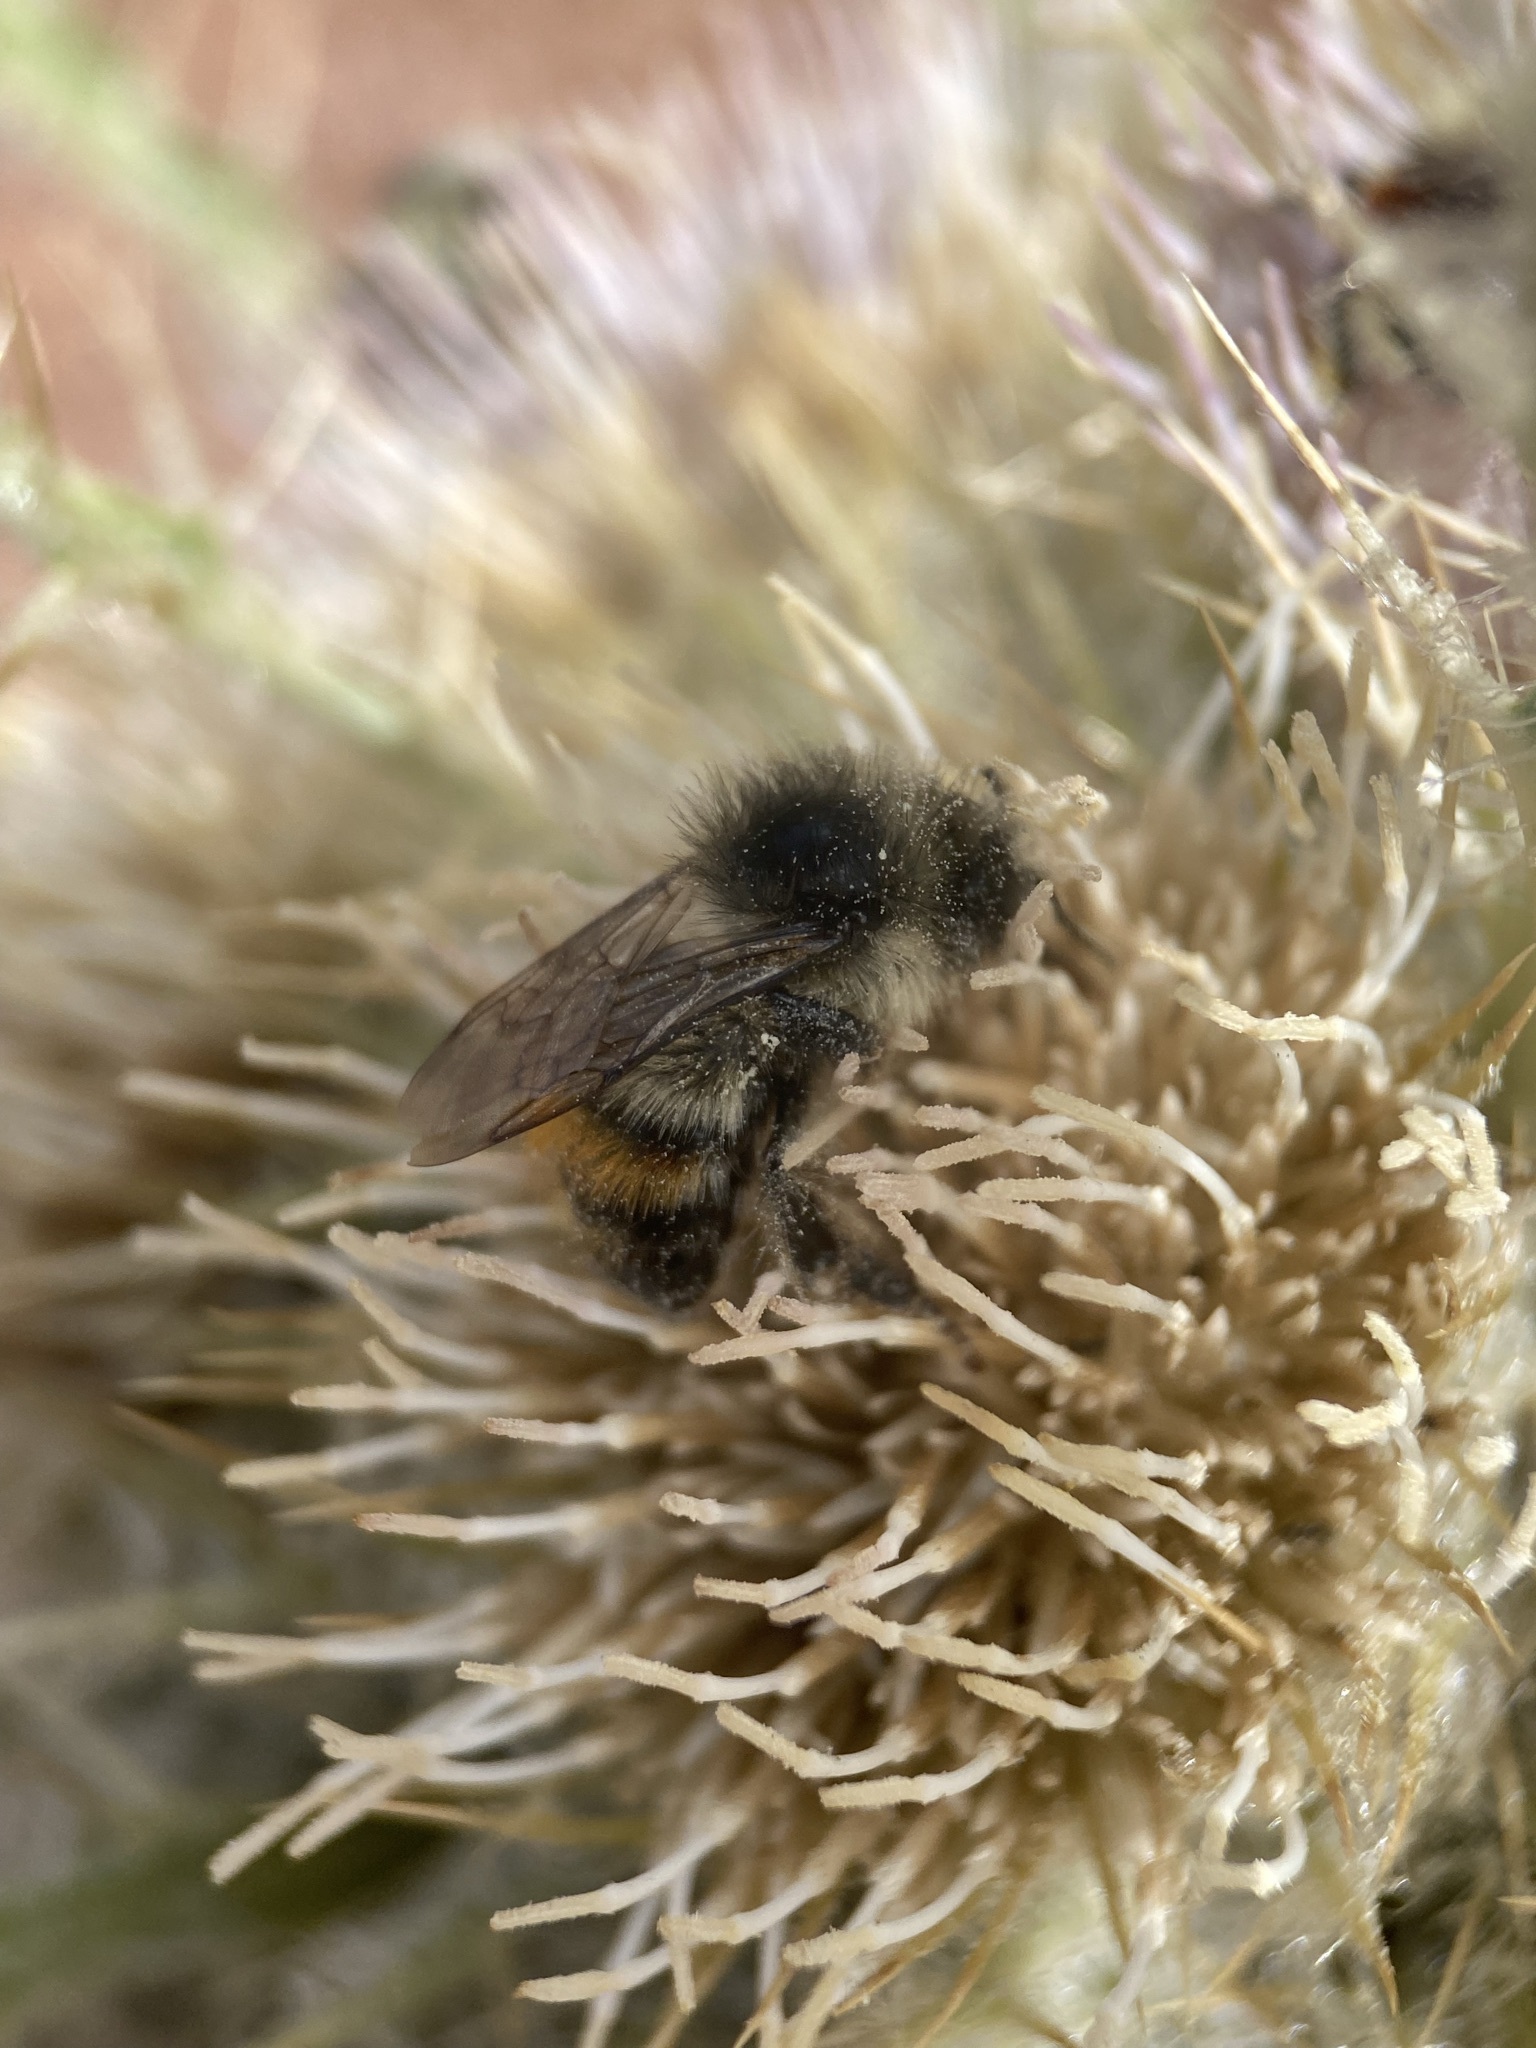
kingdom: Animalia
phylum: Arthropoda
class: Insecta
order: Hymenoptera
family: Apidae
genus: Bombus
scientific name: Bombus flavifrons
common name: Yellow head bumble bee
